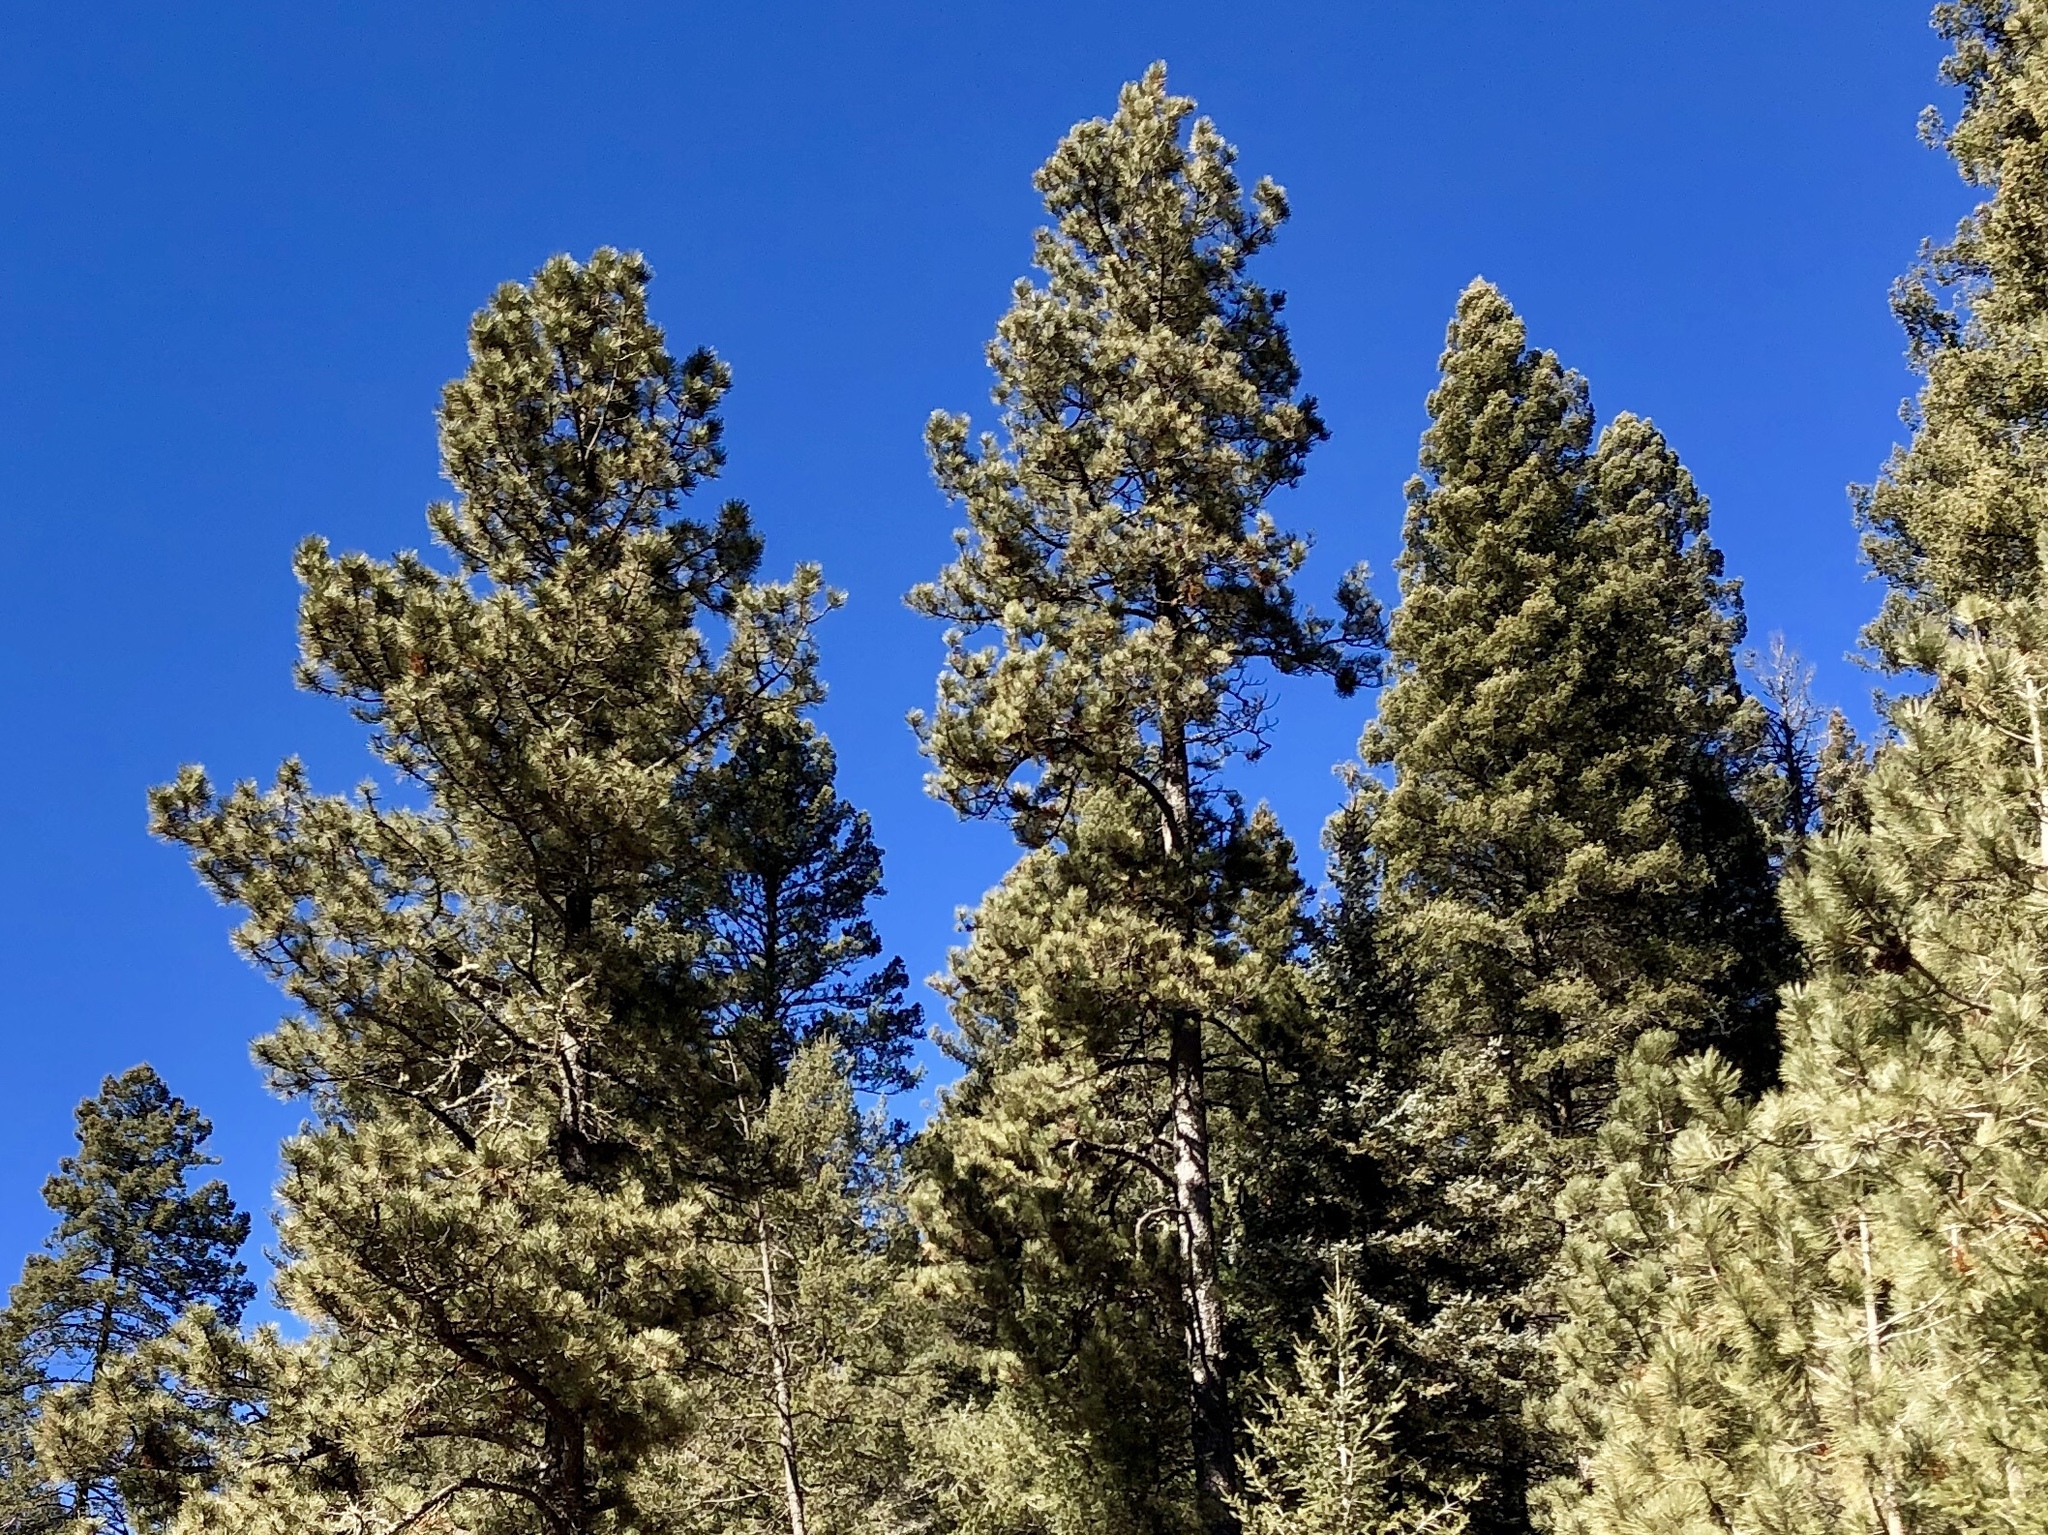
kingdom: Plantae
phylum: Tracheophyta
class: Pinopsida
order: Pinales
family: Pinaceae
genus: Pinus
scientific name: Pinus ponderosa
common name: Western yellow-pine
